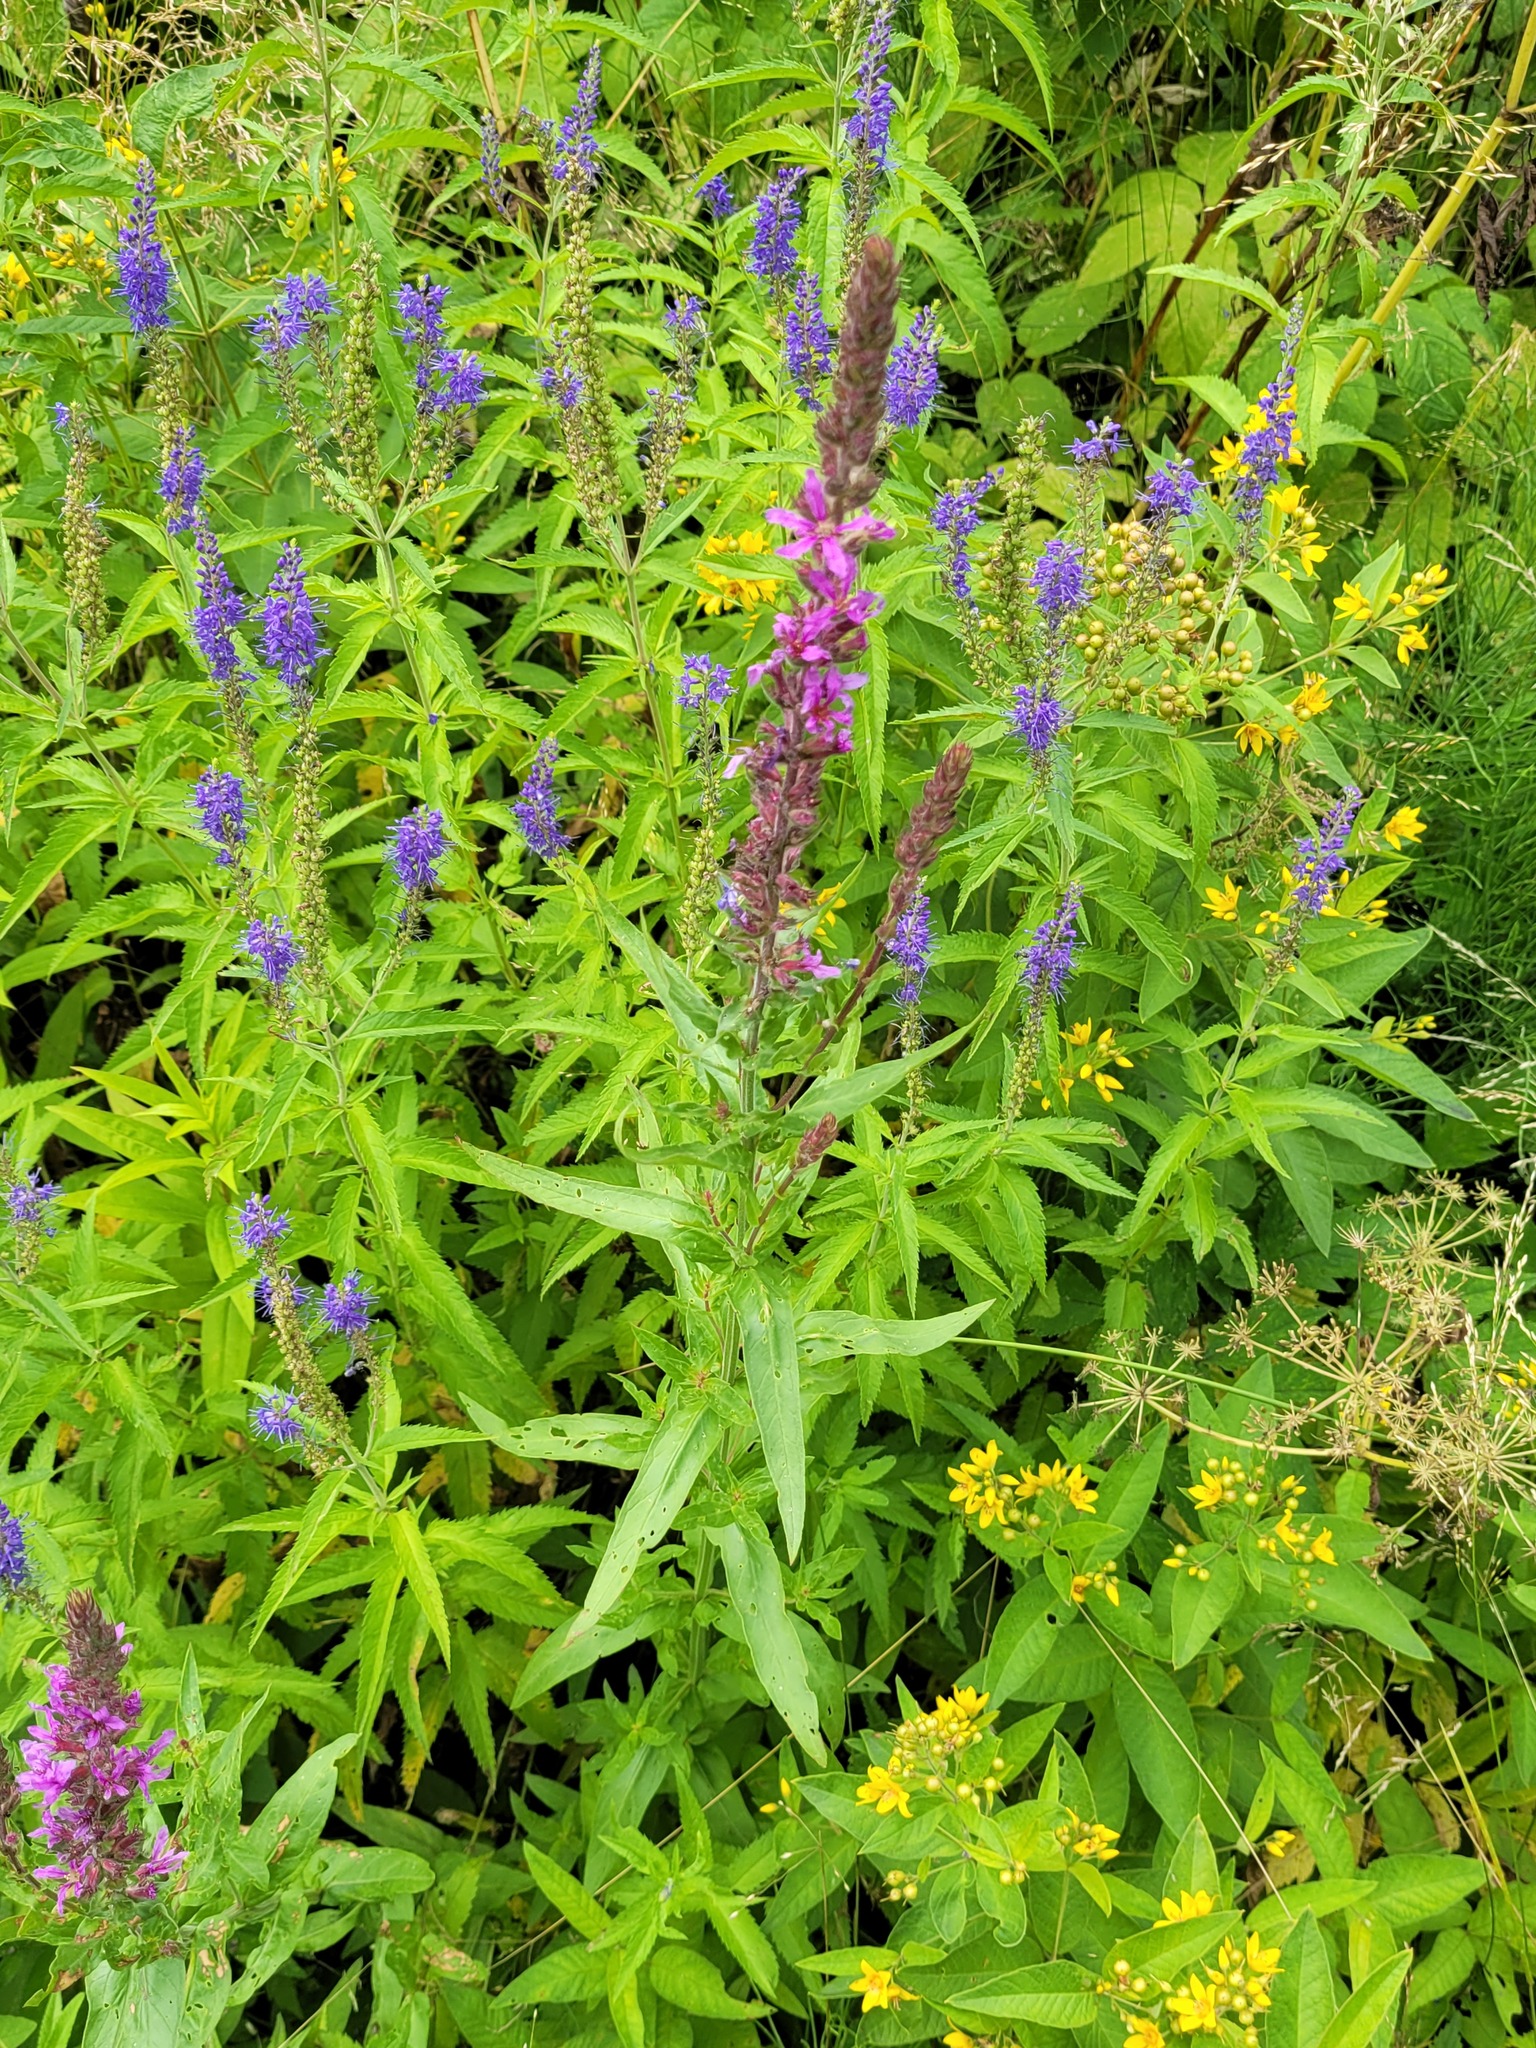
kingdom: Plantae
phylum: Tracheophyta
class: Magnoliopsida
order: Myrtales
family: Lythraceae
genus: Lythrum
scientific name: Lythrum salicaria
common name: Purple loosestrife
